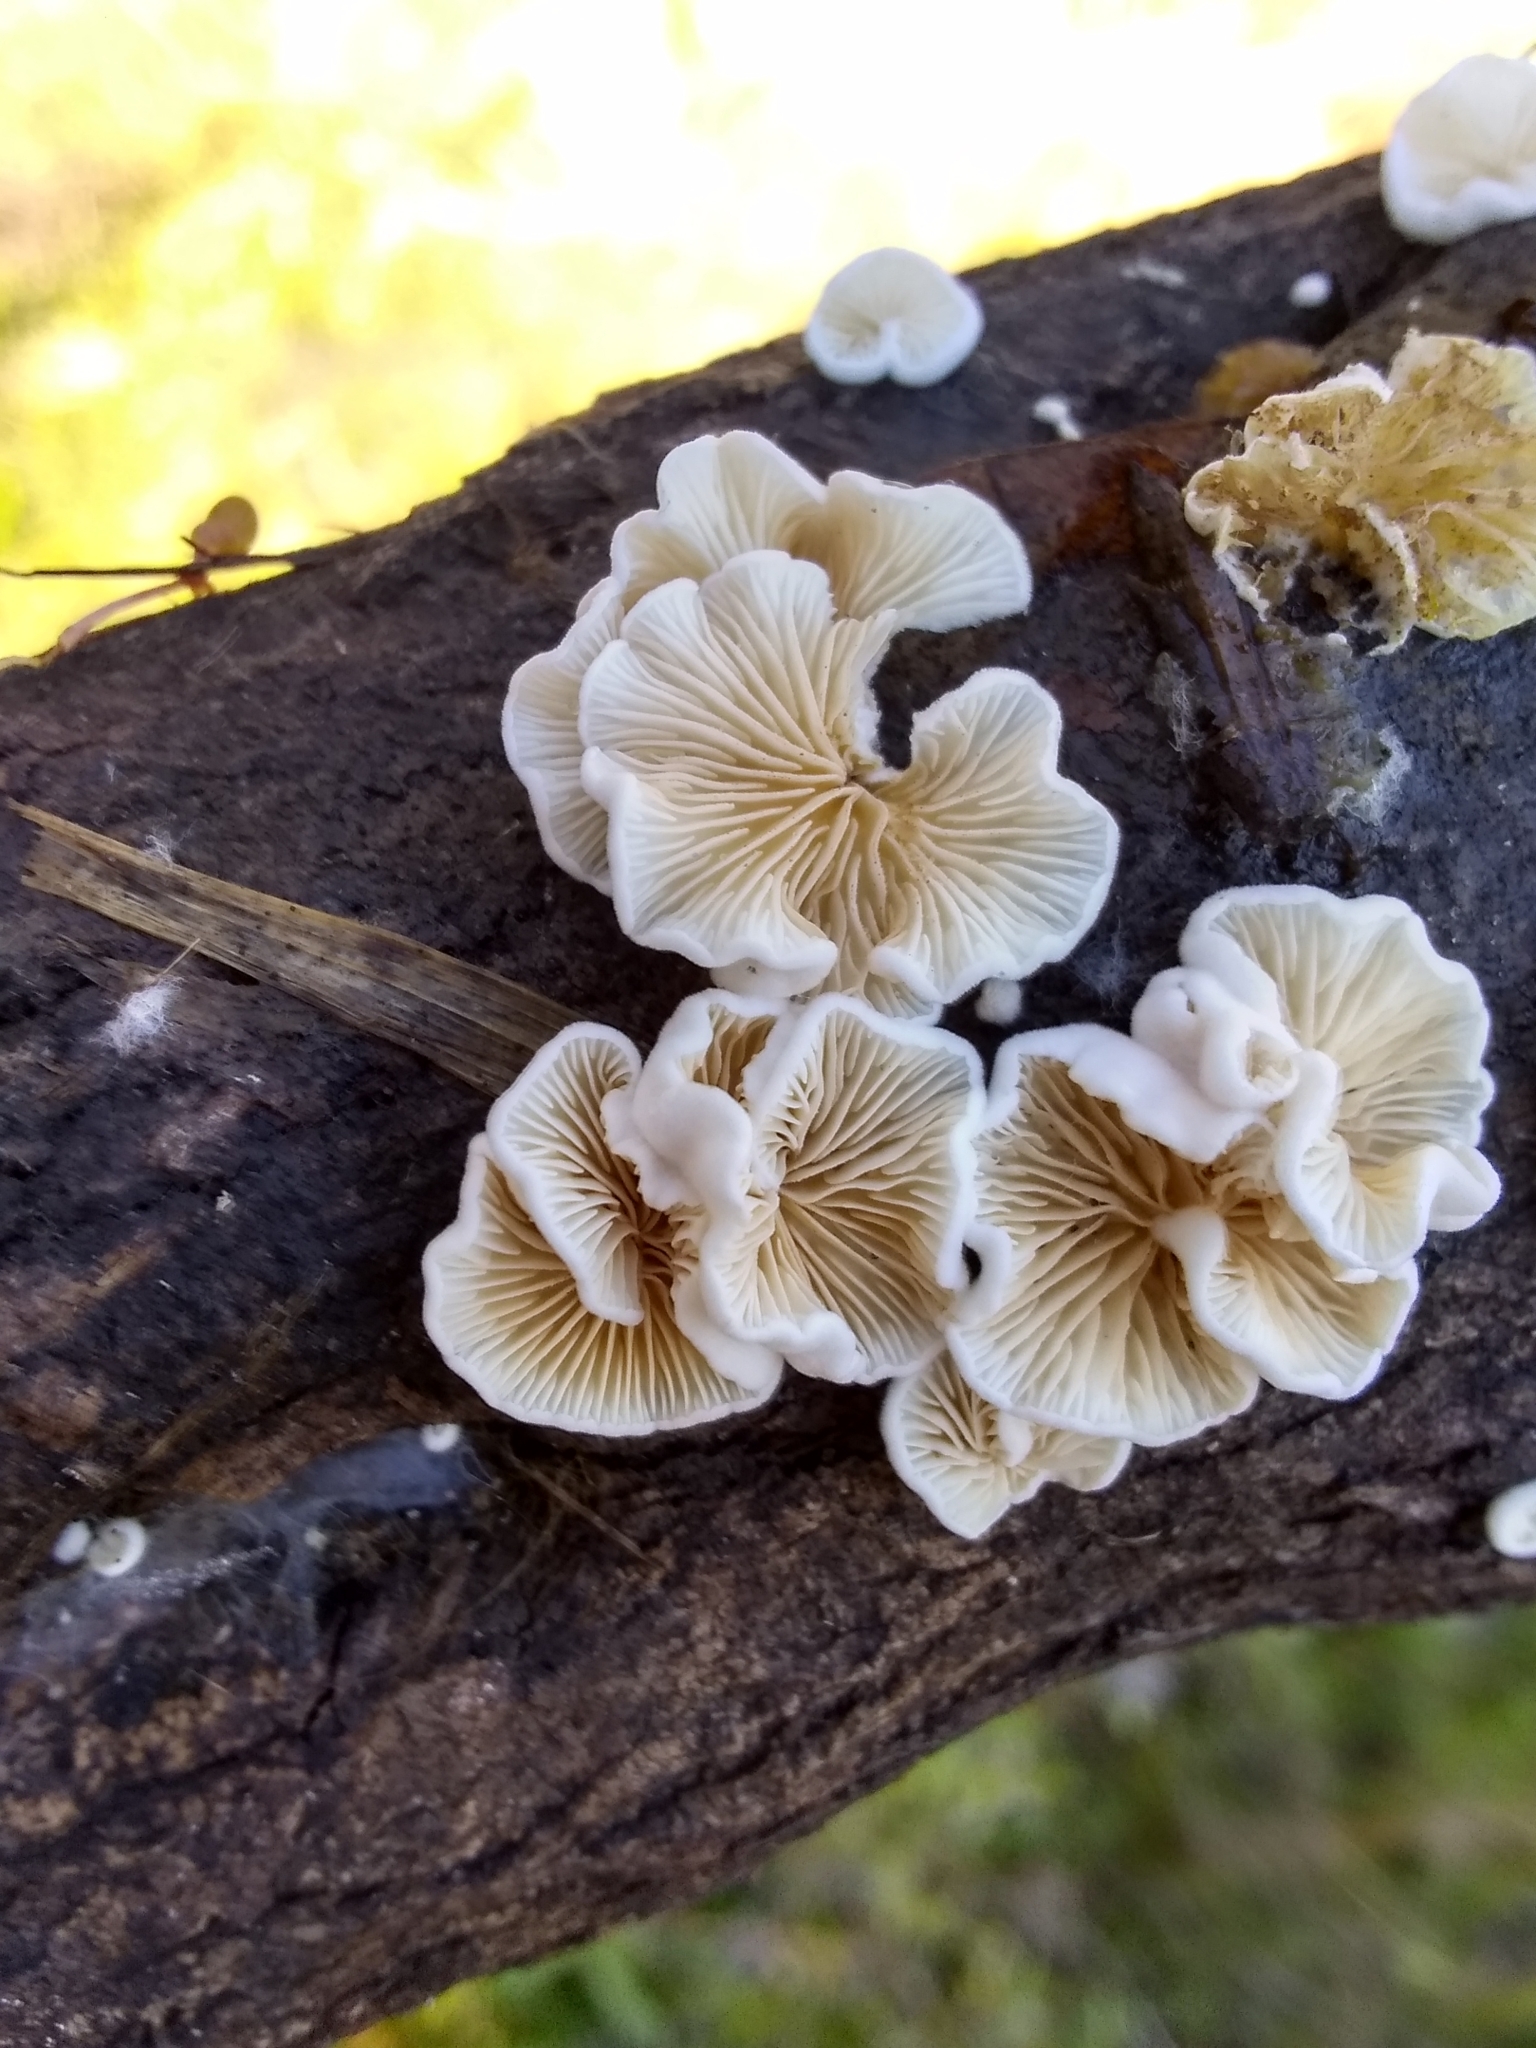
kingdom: Fungi
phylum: Basidiomycota
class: Agaricomycetes
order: Agaricales
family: Entolomataceae
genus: Clitopilus
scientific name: Clitopilus hobsonii
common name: Miller's oysterling
